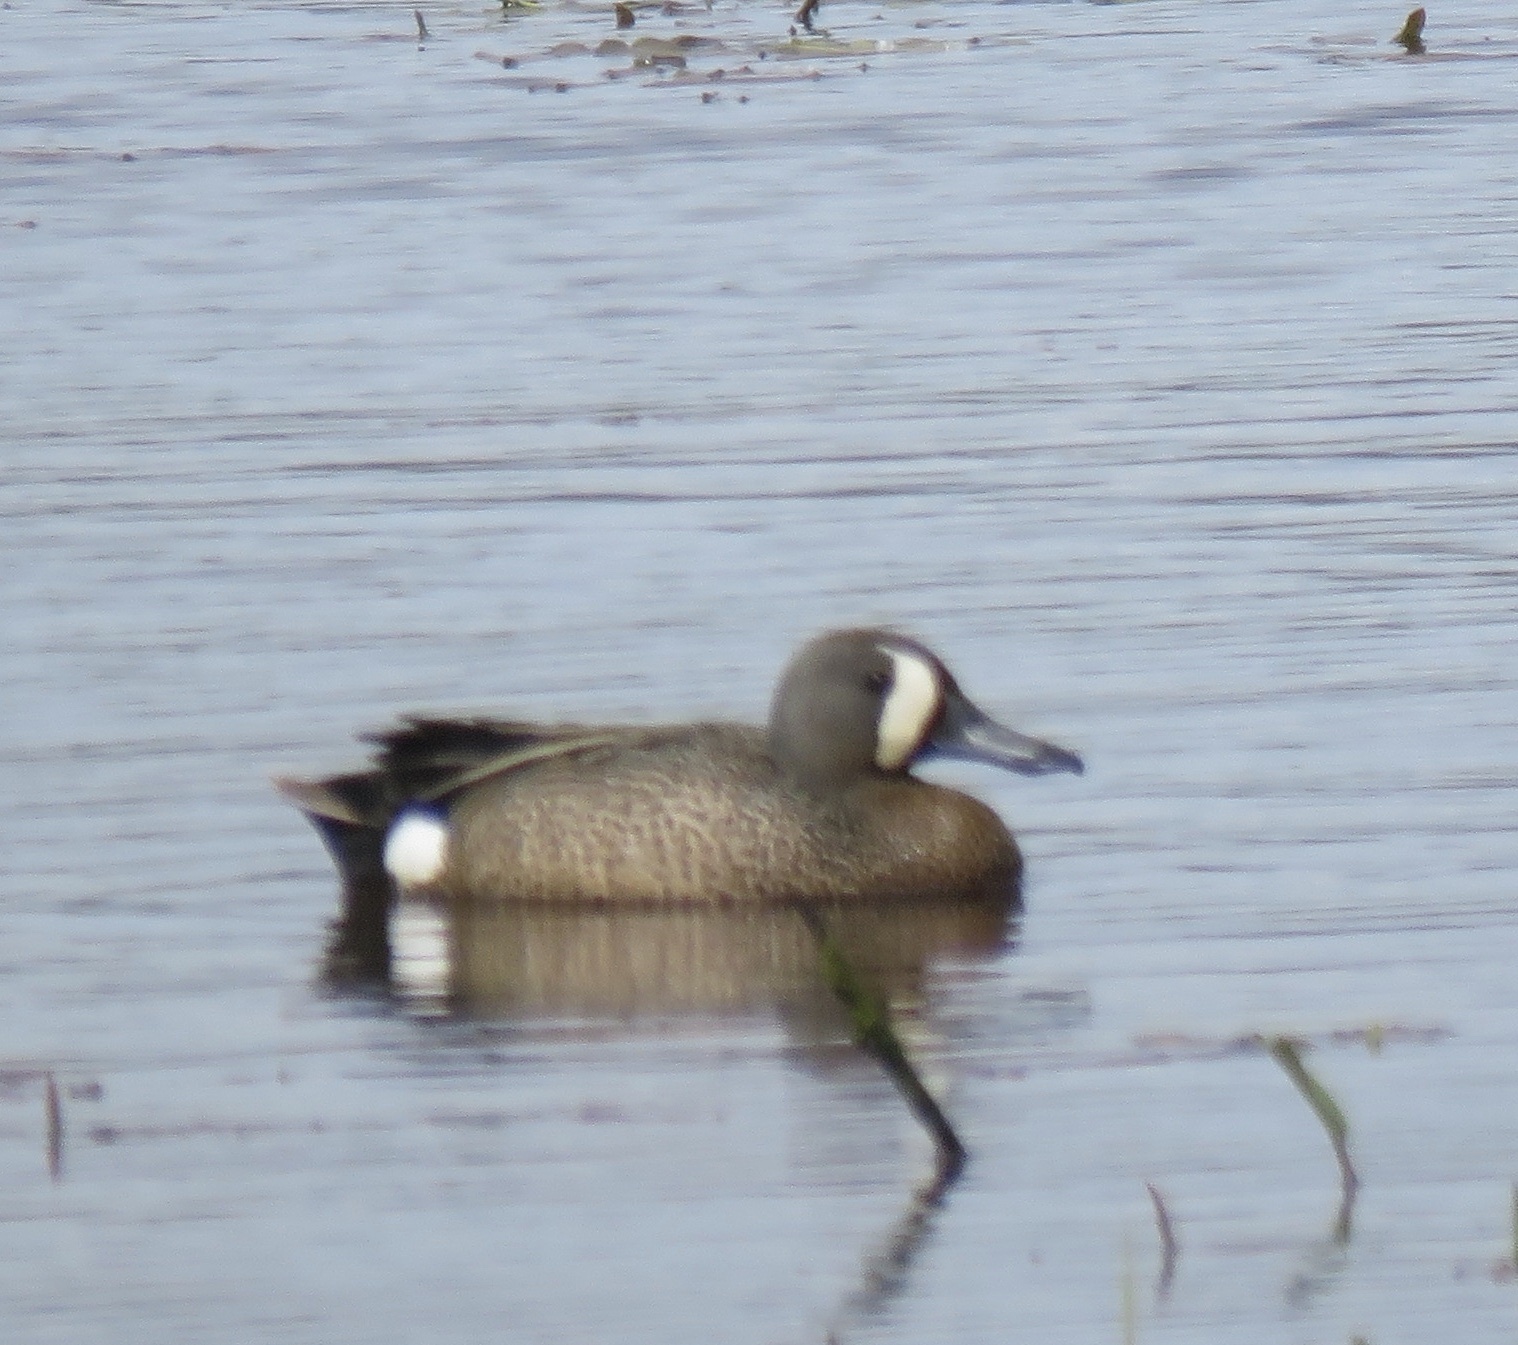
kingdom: Animalia
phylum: Chordata
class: Aves
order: Anseriformes
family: Anatidae
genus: Spatula
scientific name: Spatula discors
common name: Blue-winged teal
